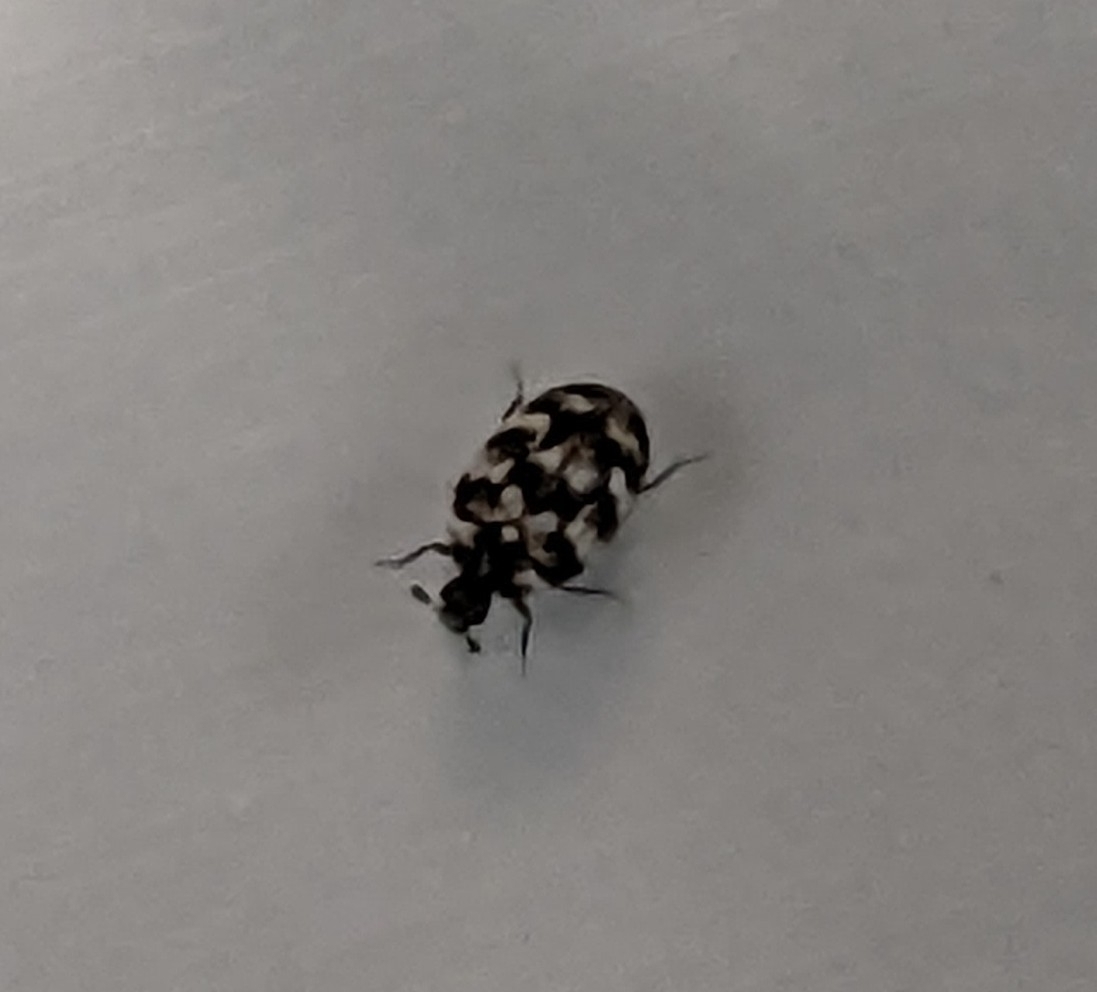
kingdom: Animalia
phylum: Arthropoda
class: Insecta
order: Coleoptera
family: Dermestidae
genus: Anthrenus
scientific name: Anthrenus verbasci
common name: Varied carpet beetle
